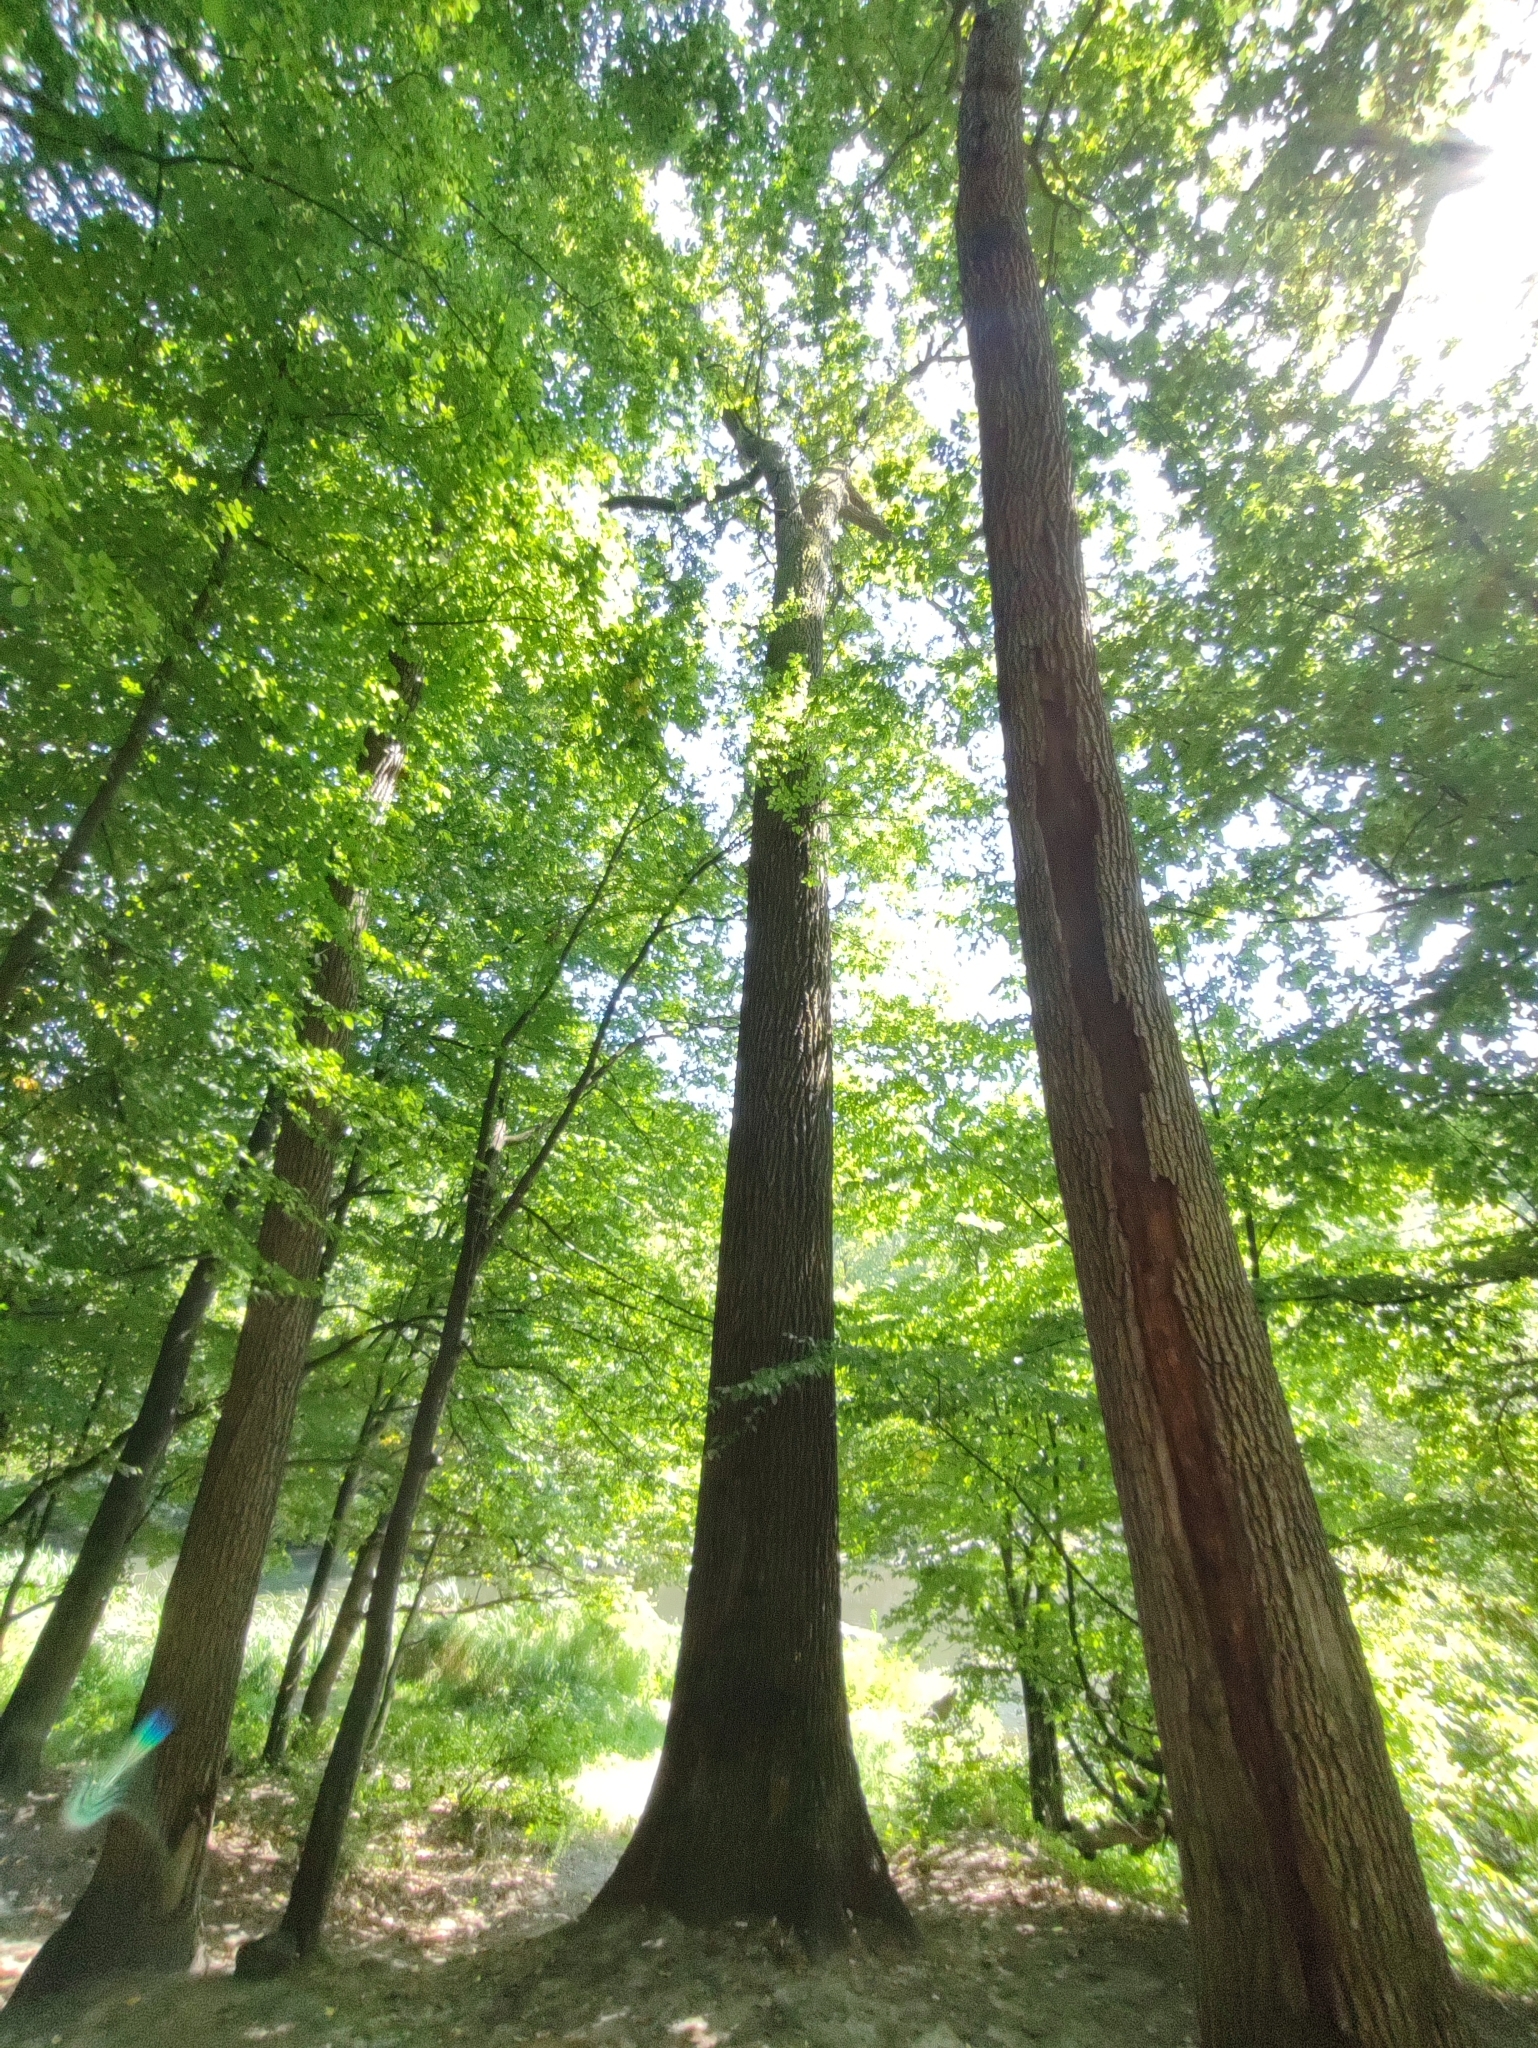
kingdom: Plantae
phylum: Tracheophyta
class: Magnoliopsida
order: Fagales
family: Fagaceae
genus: Quercus
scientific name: Quercus robur
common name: Pedunculate oak
